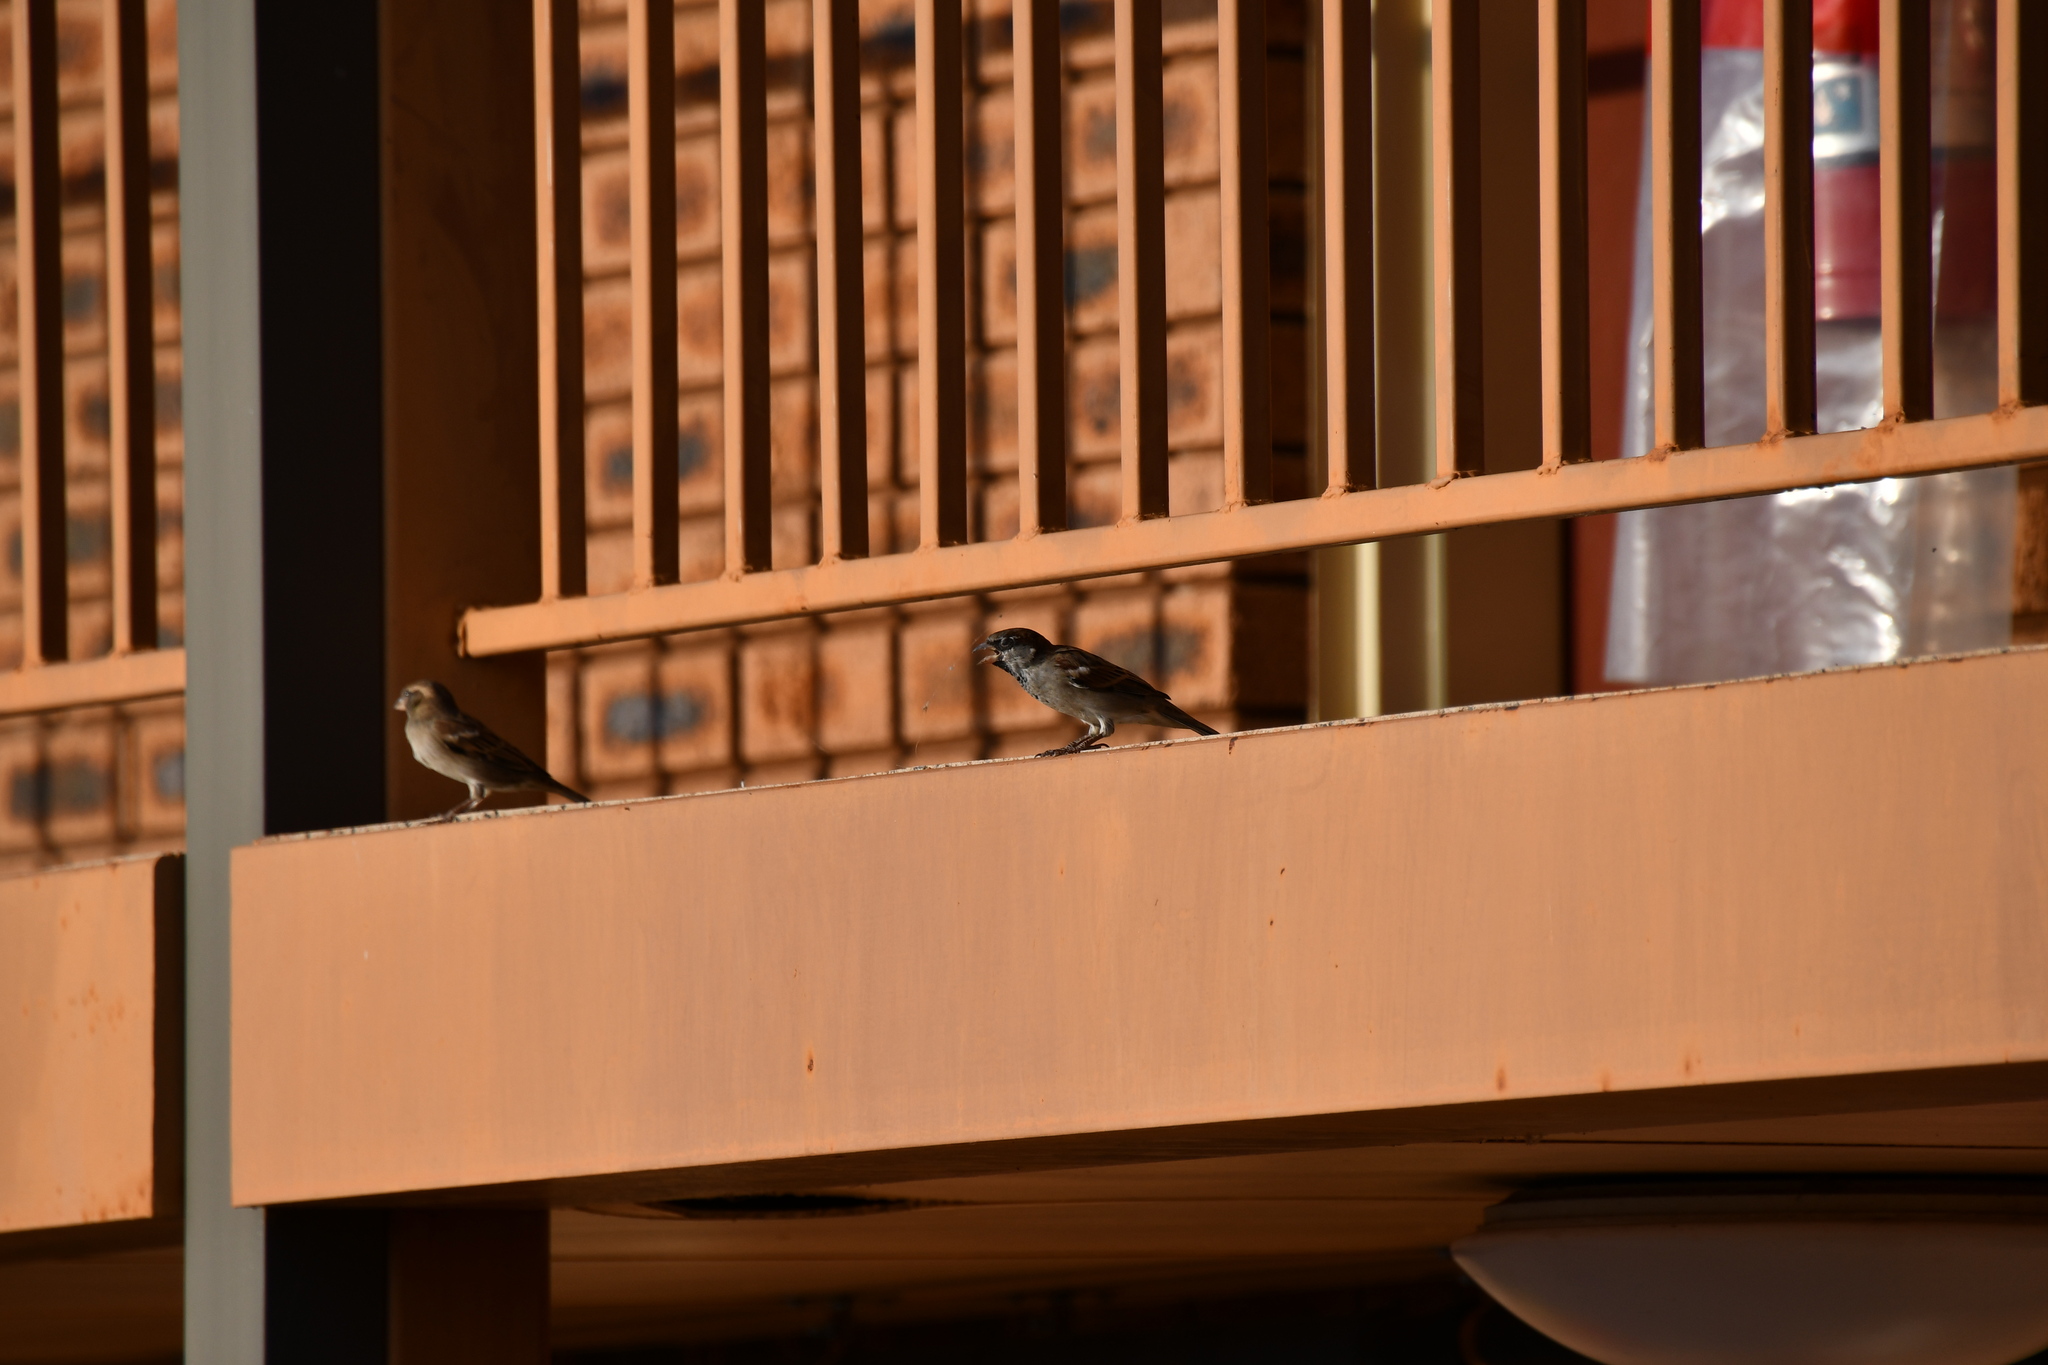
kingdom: Animalia
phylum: Chordata
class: Aves
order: Passeriformes
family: Passeridae
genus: Passer
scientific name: Passer domesticus
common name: House sparrow
